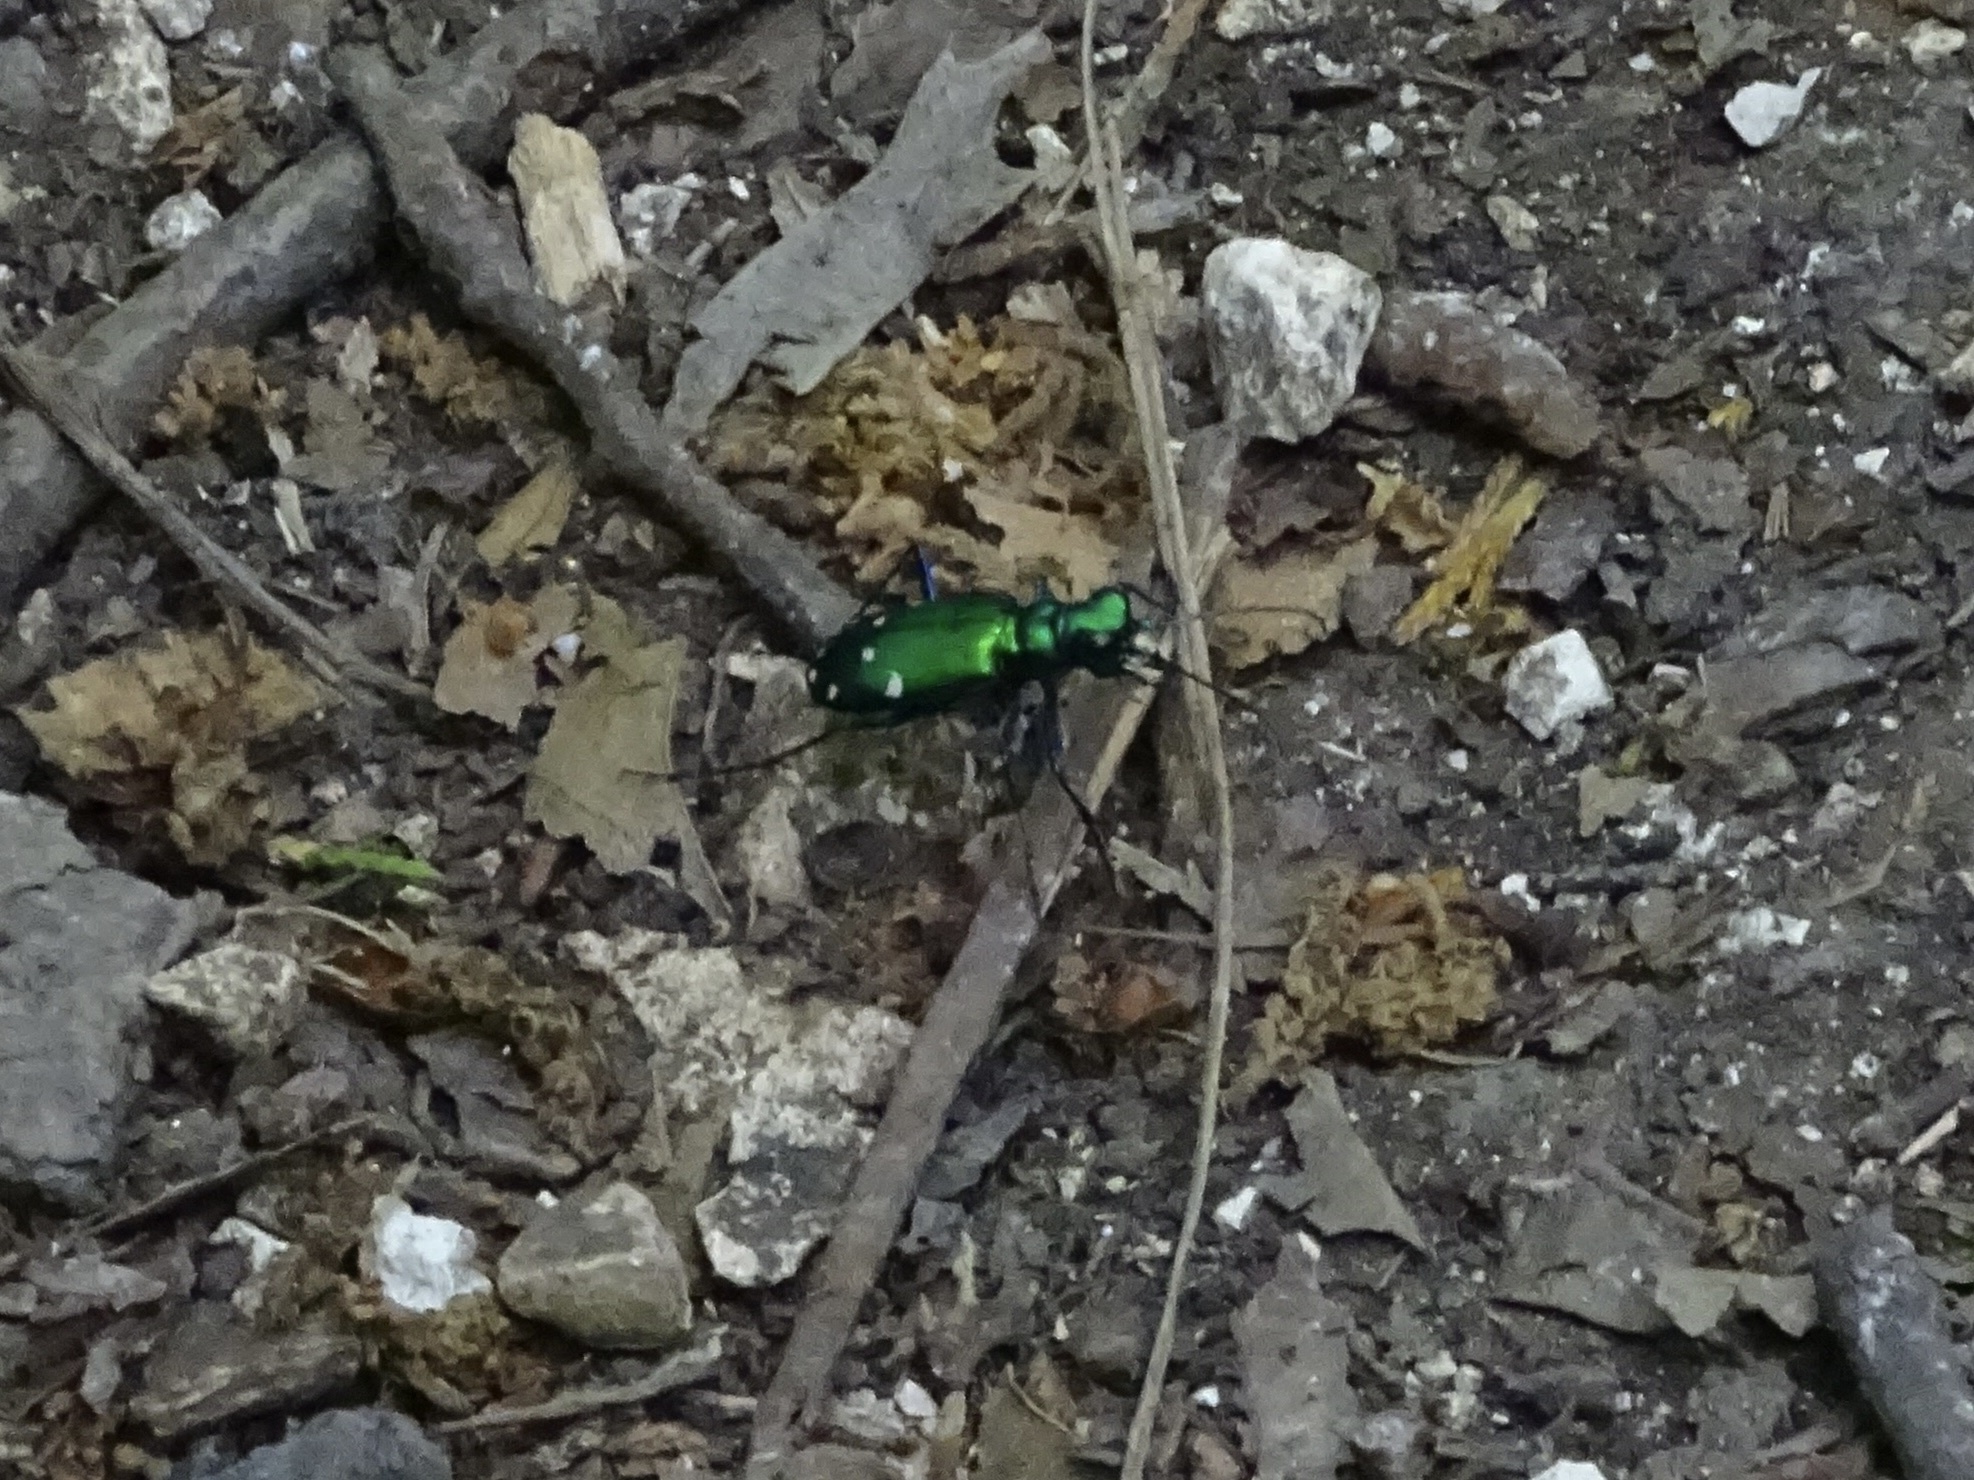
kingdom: Animalia
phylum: Arthropoda
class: Insecta
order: Coleoptera
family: Carabidae
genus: Cicindela
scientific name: Cicindela sexguttata
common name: Six-spotted tiger beetle
